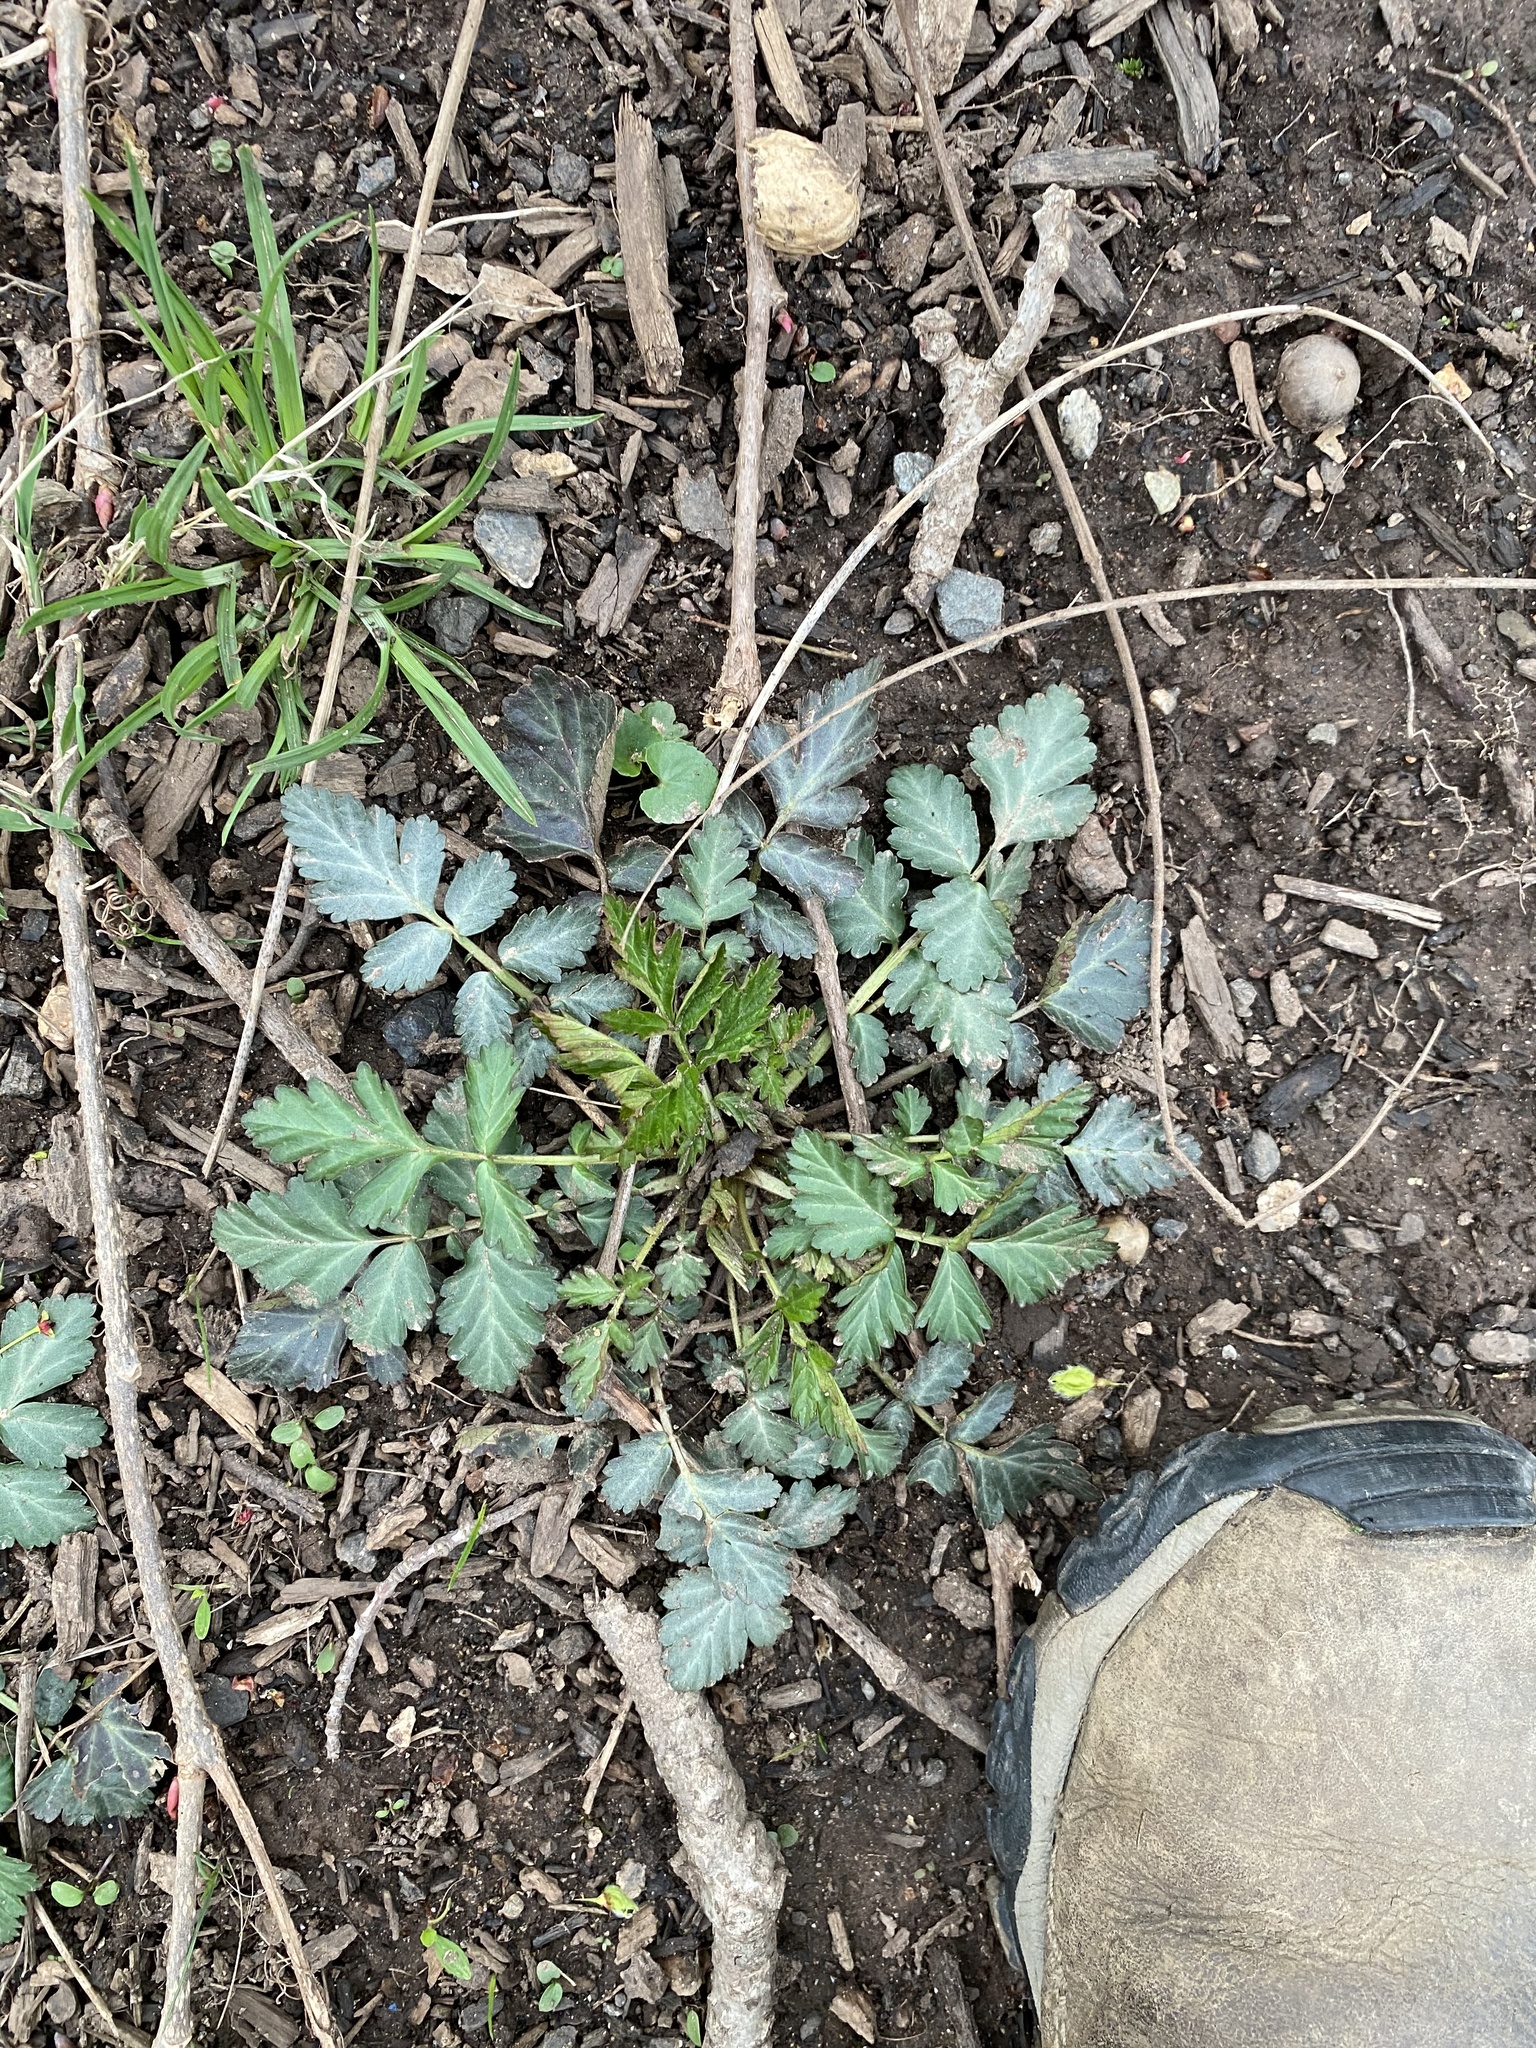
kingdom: Plantae
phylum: Tracheophyta
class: Magnoliopsida
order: Rosales
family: Rosaceae
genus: Geum
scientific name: Geum canadense
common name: White avens
